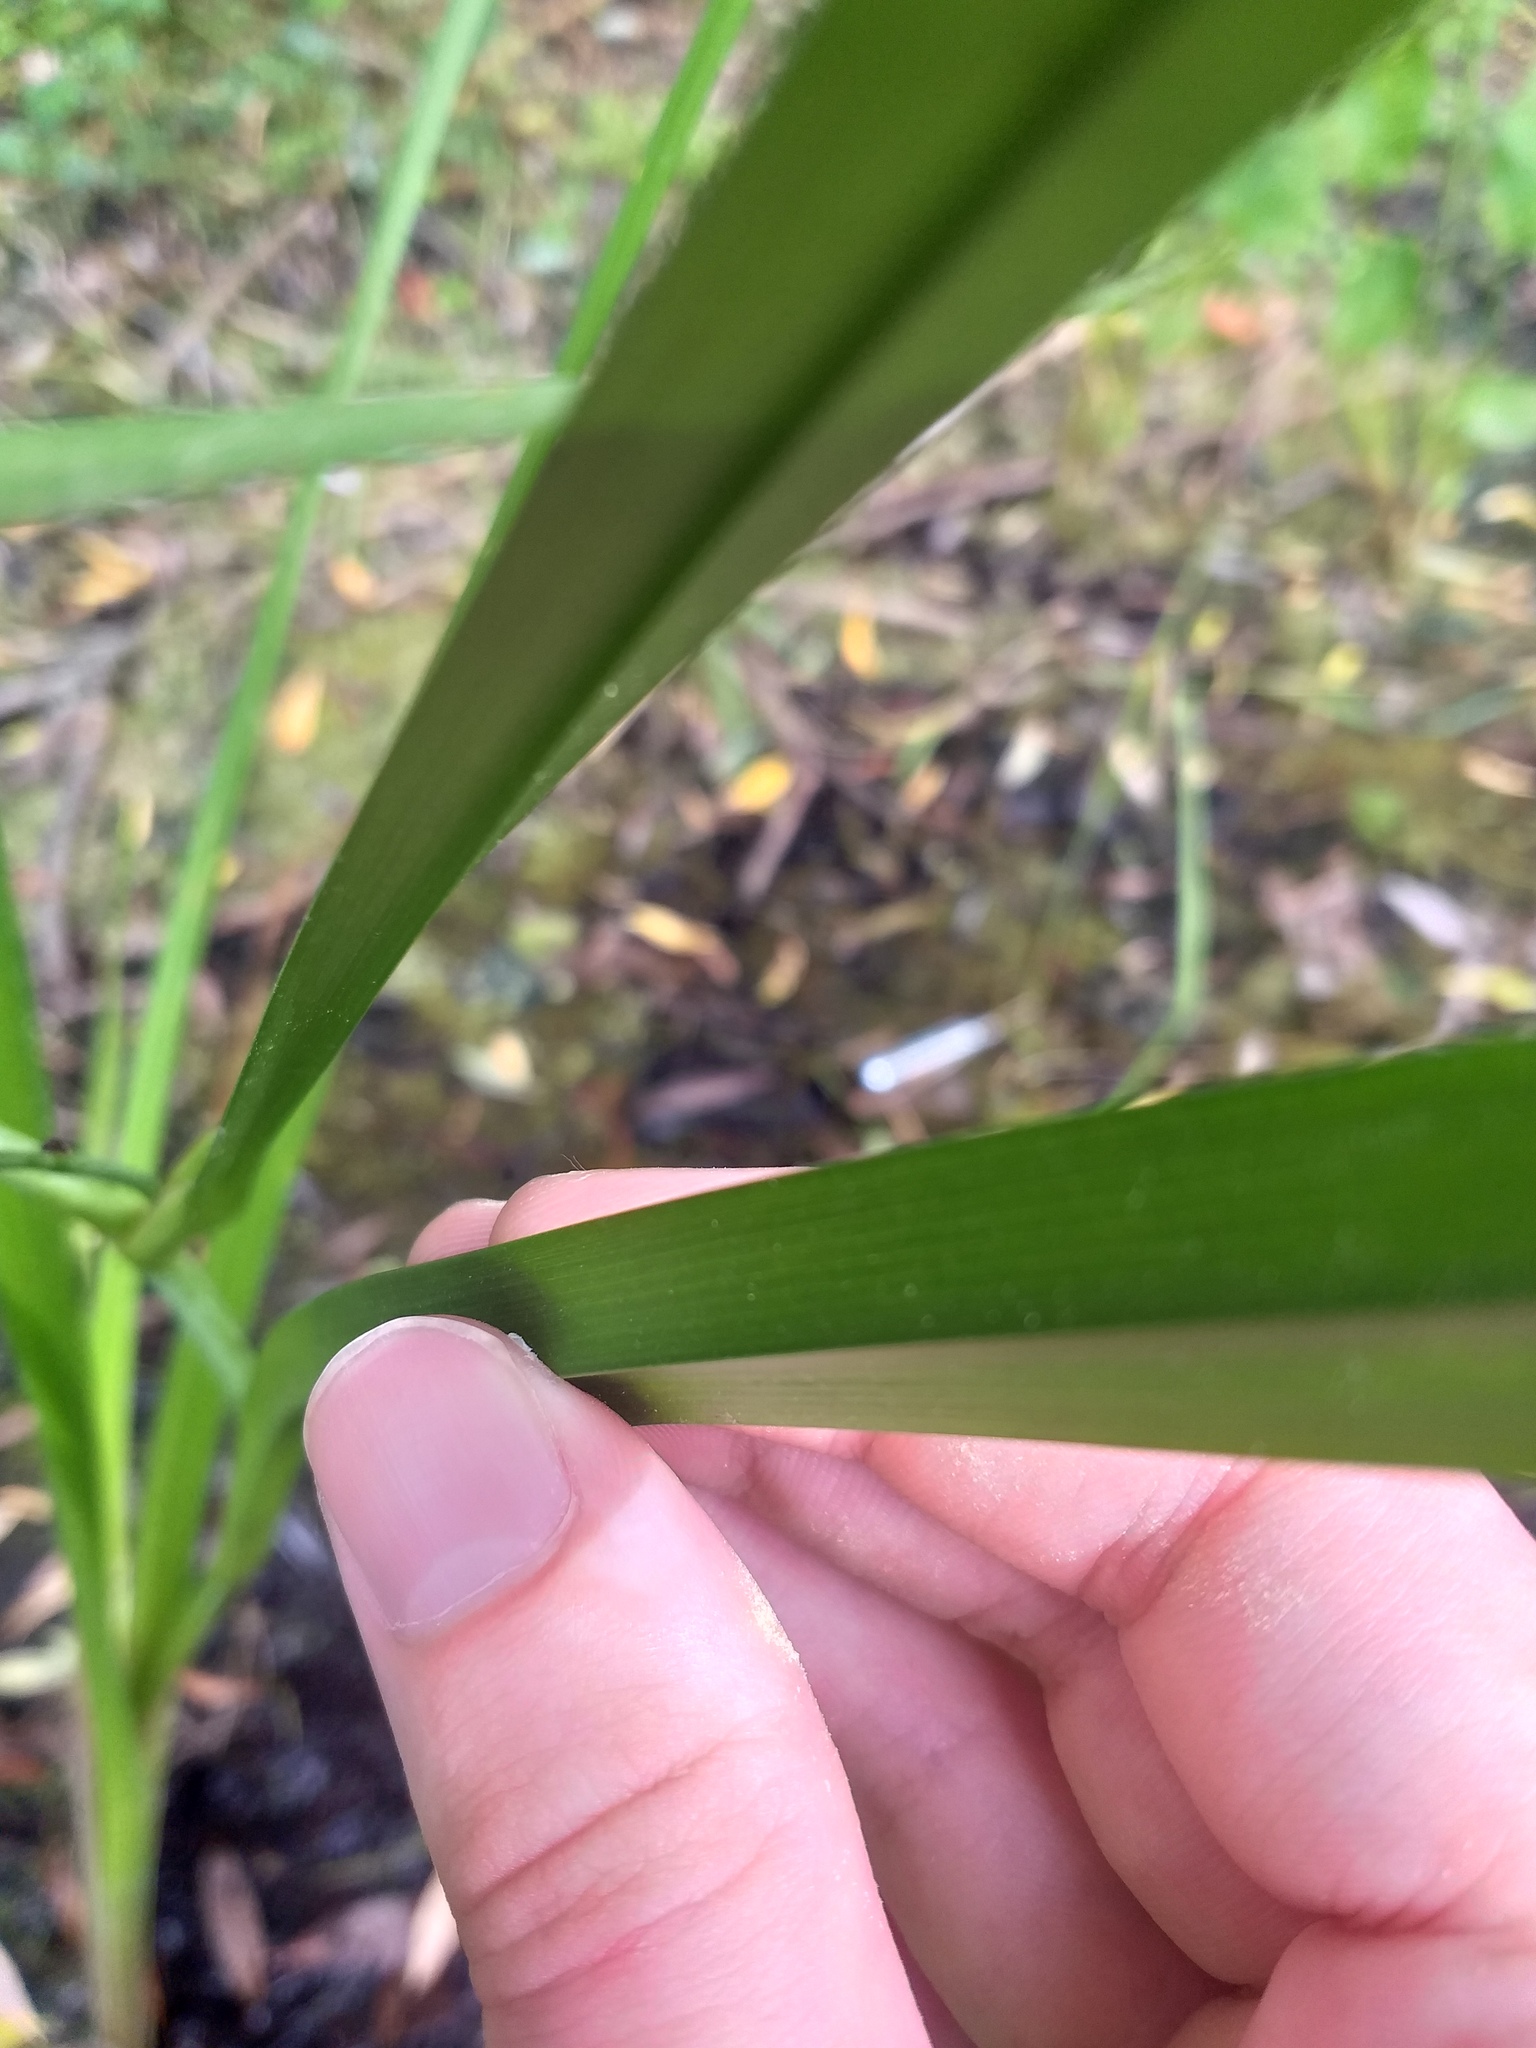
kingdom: Plantae
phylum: Tracheophyta
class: Liliopsida
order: Poales
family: Typhaceae
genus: Sparganium
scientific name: Sparganium erectum
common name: Branched bur-reed
